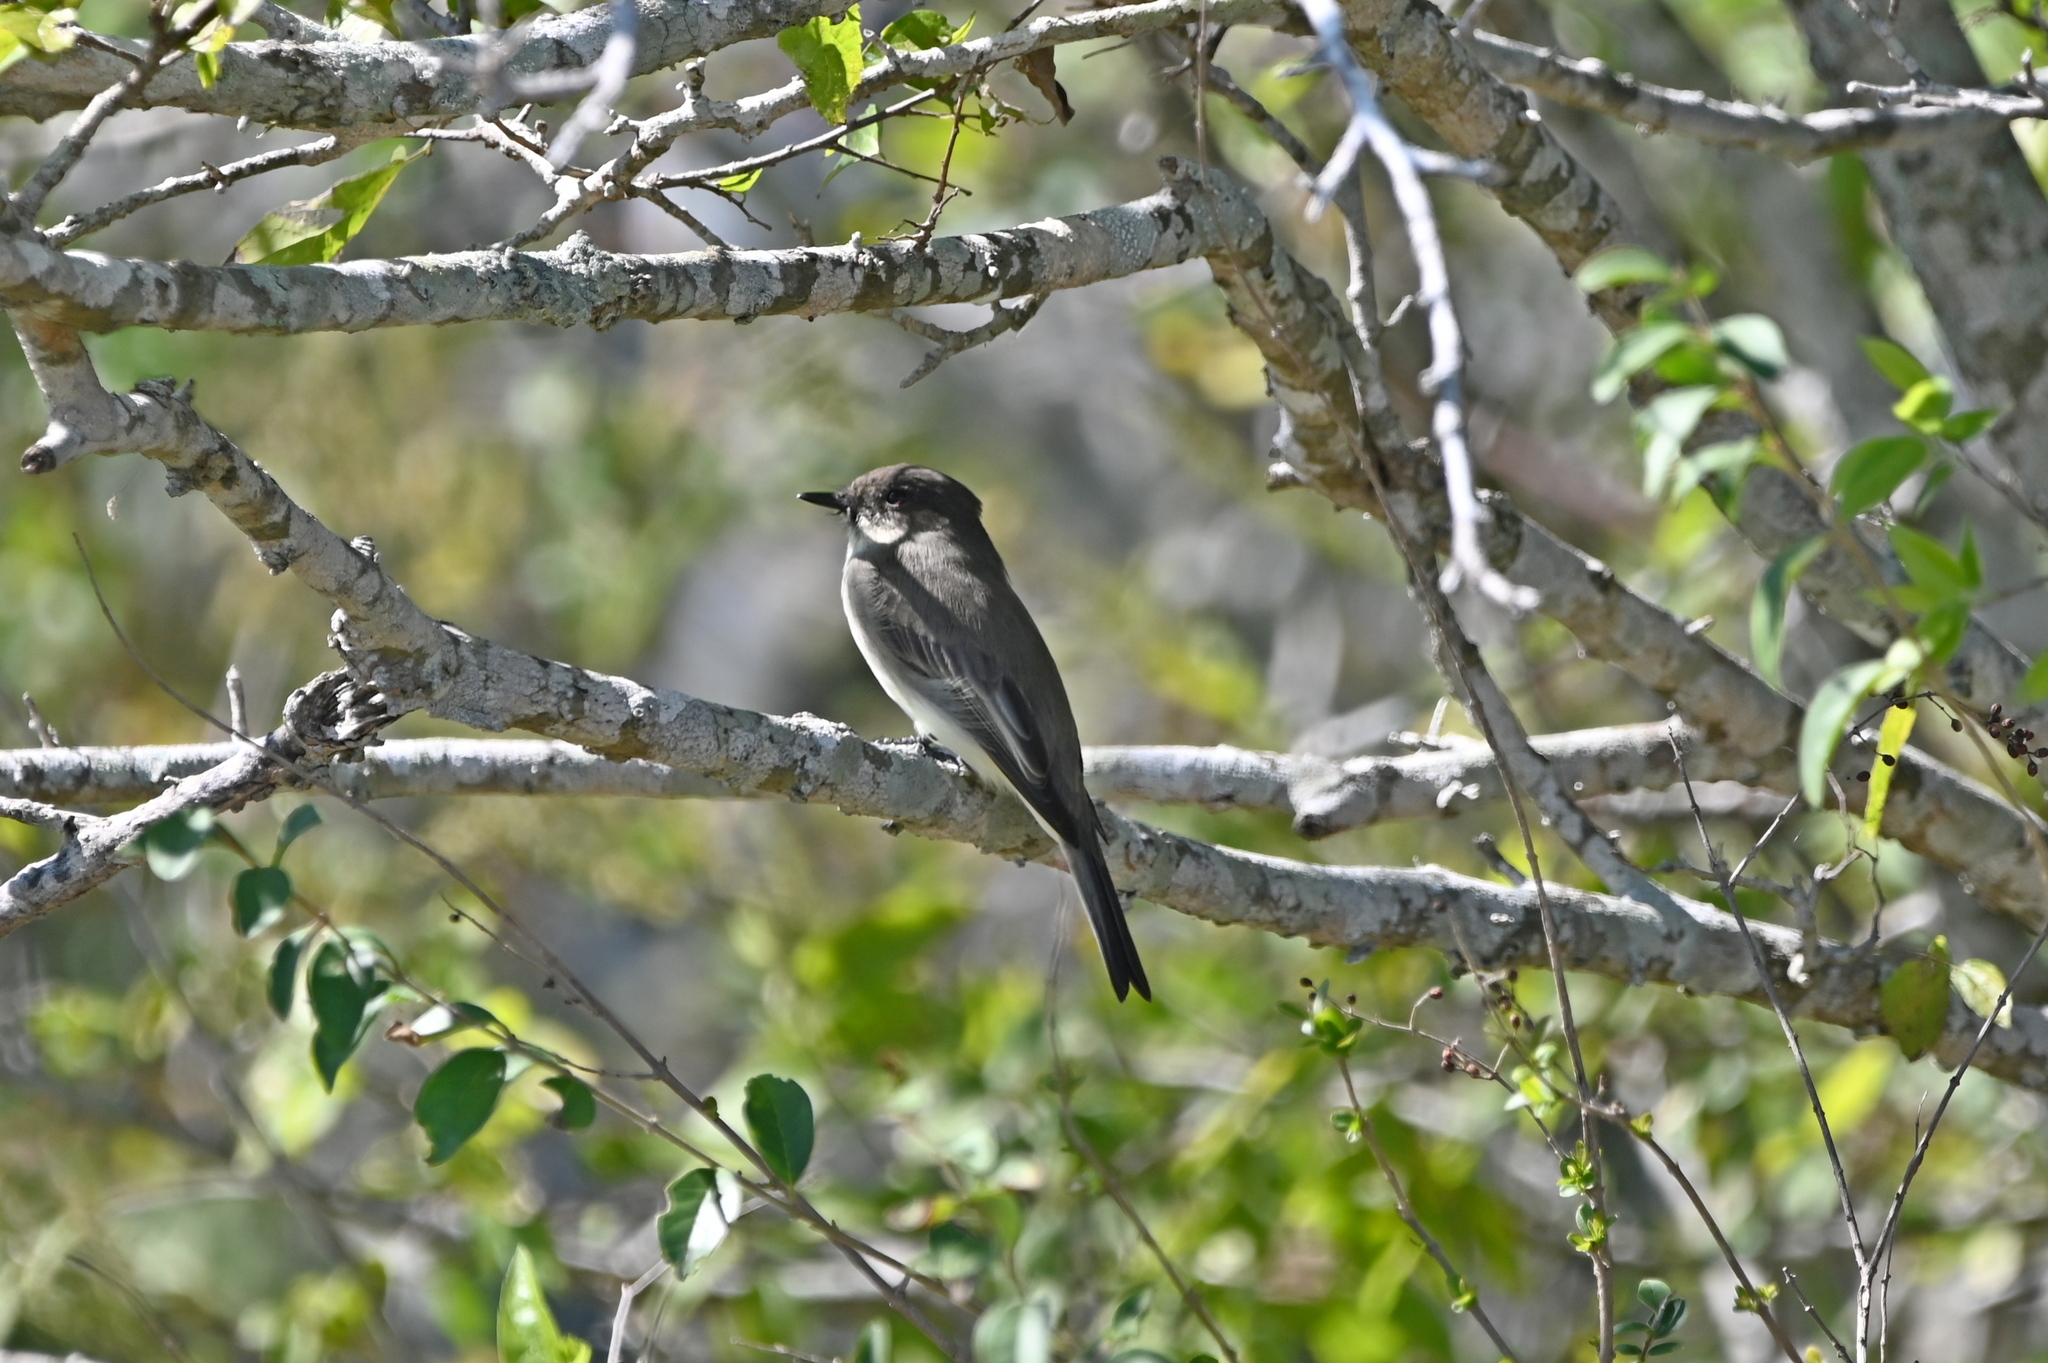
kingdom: Animalia
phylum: Chordata
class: Aves
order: Passeriformes
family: Tyrannidae
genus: Sayornis
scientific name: Sayornis phoebe
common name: Eastern phoebe
